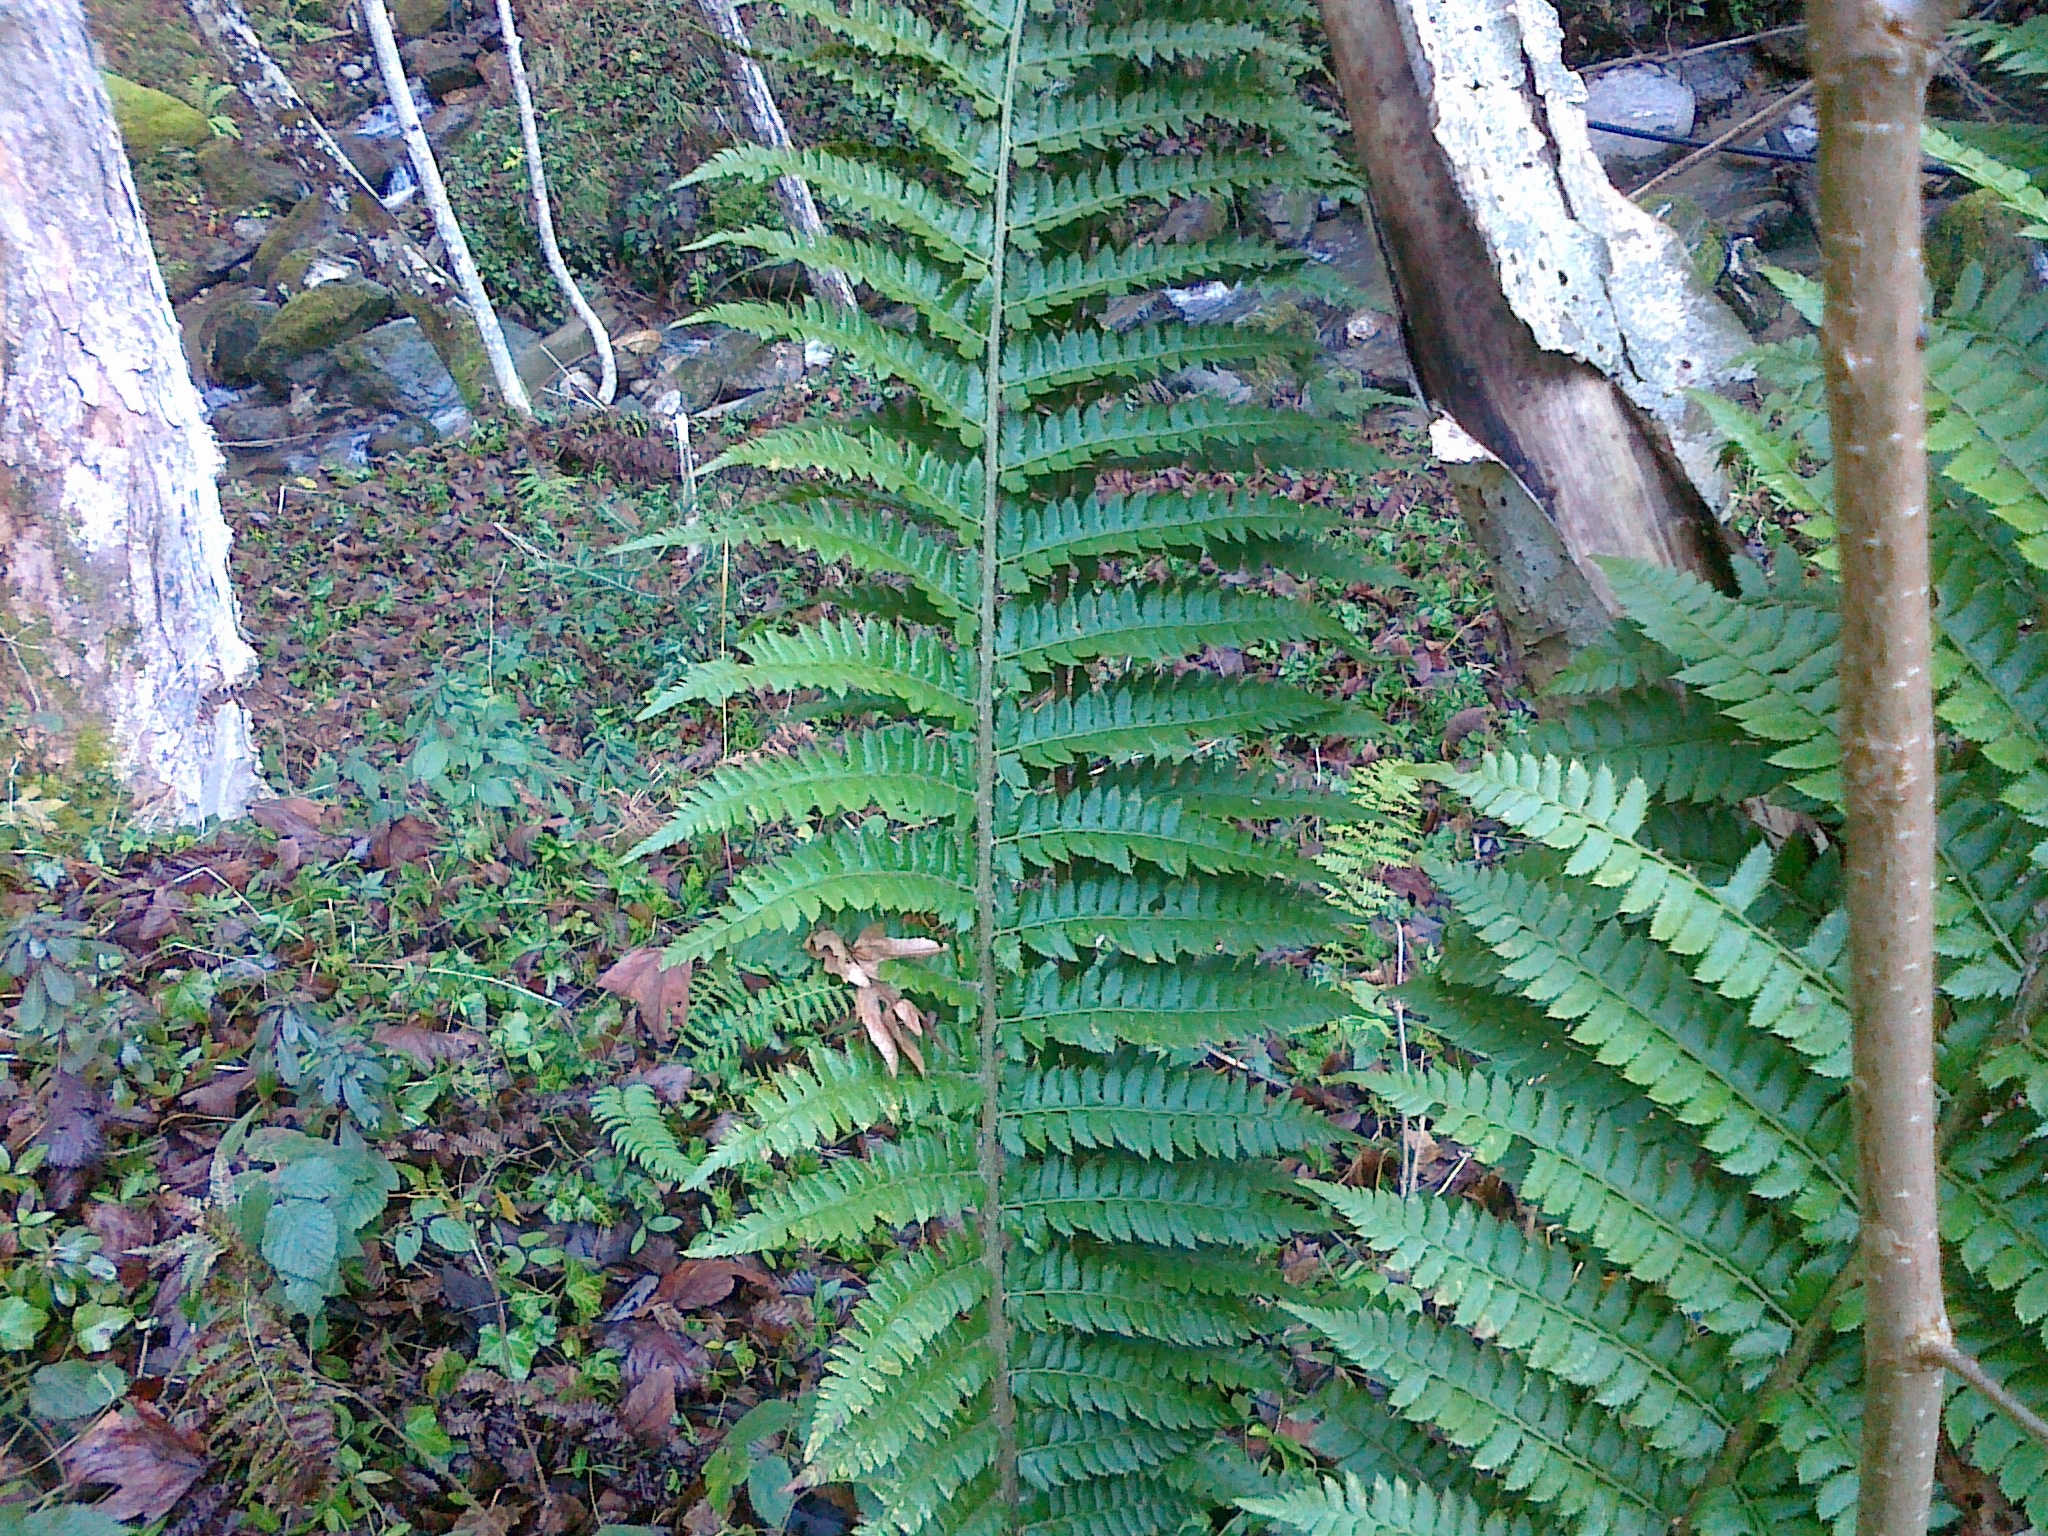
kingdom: Plantae
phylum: Tracheophyta
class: Polypodiopsida
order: Polypodiales
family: Dryopteridaceae
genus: Polystichum
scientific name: Polystichum luerssenii
